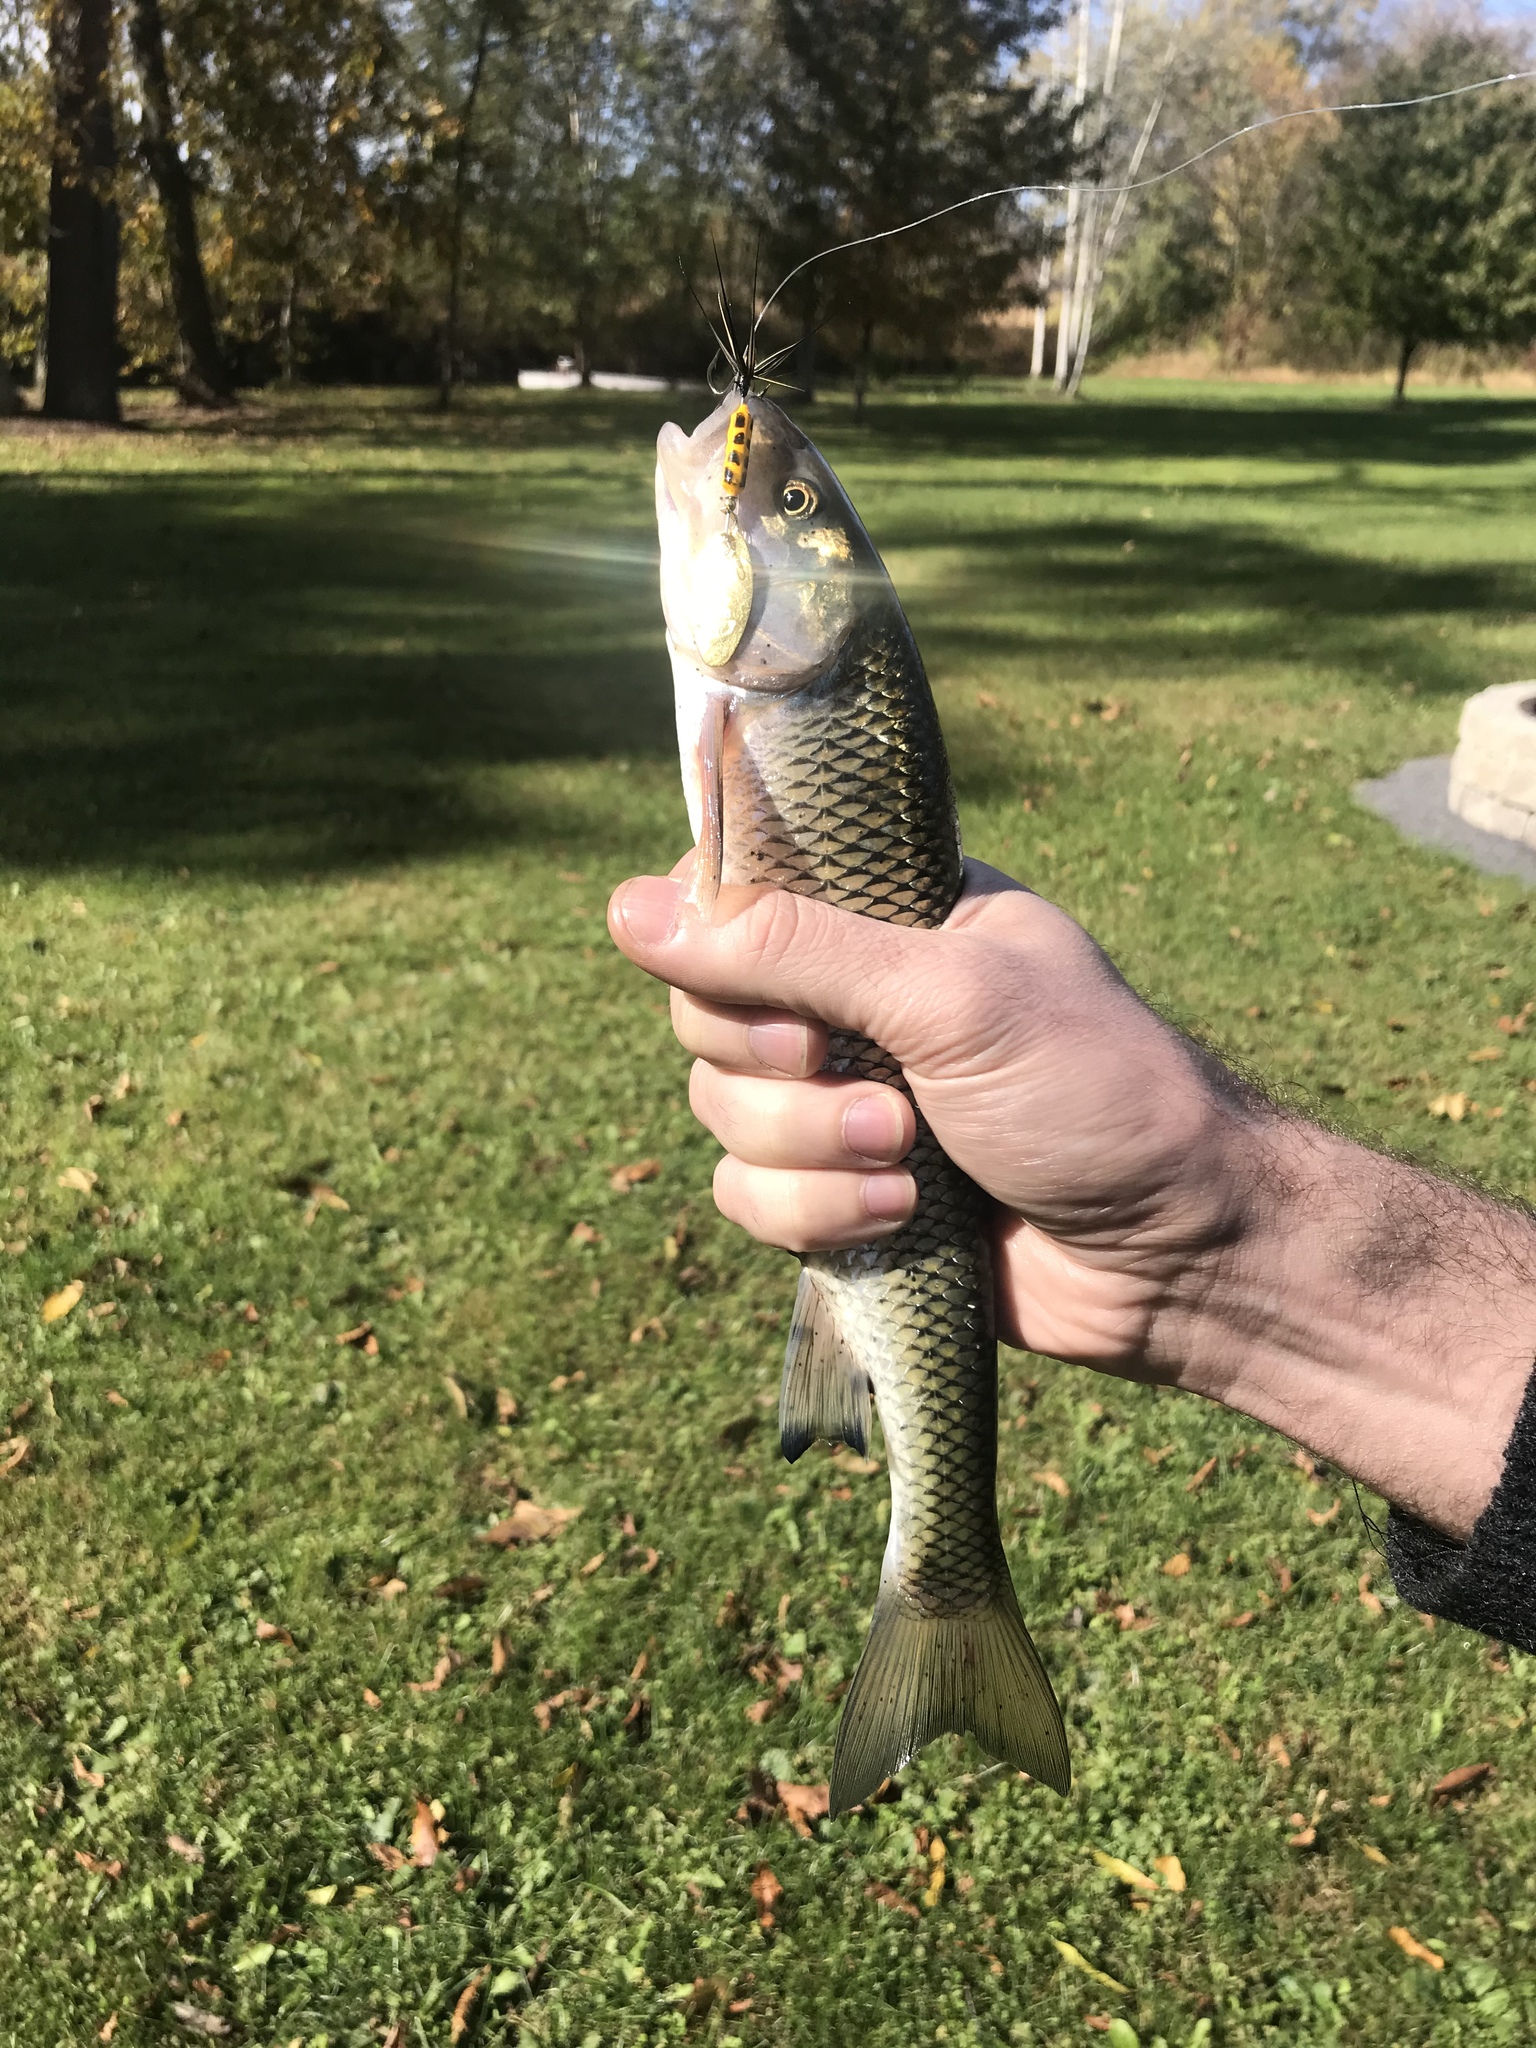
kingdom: Animalia
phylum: Chordata
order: Cypriniformes
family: Cyprinidae
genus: Semotilus
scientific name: Semotilus corporalis
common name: Fallfish
